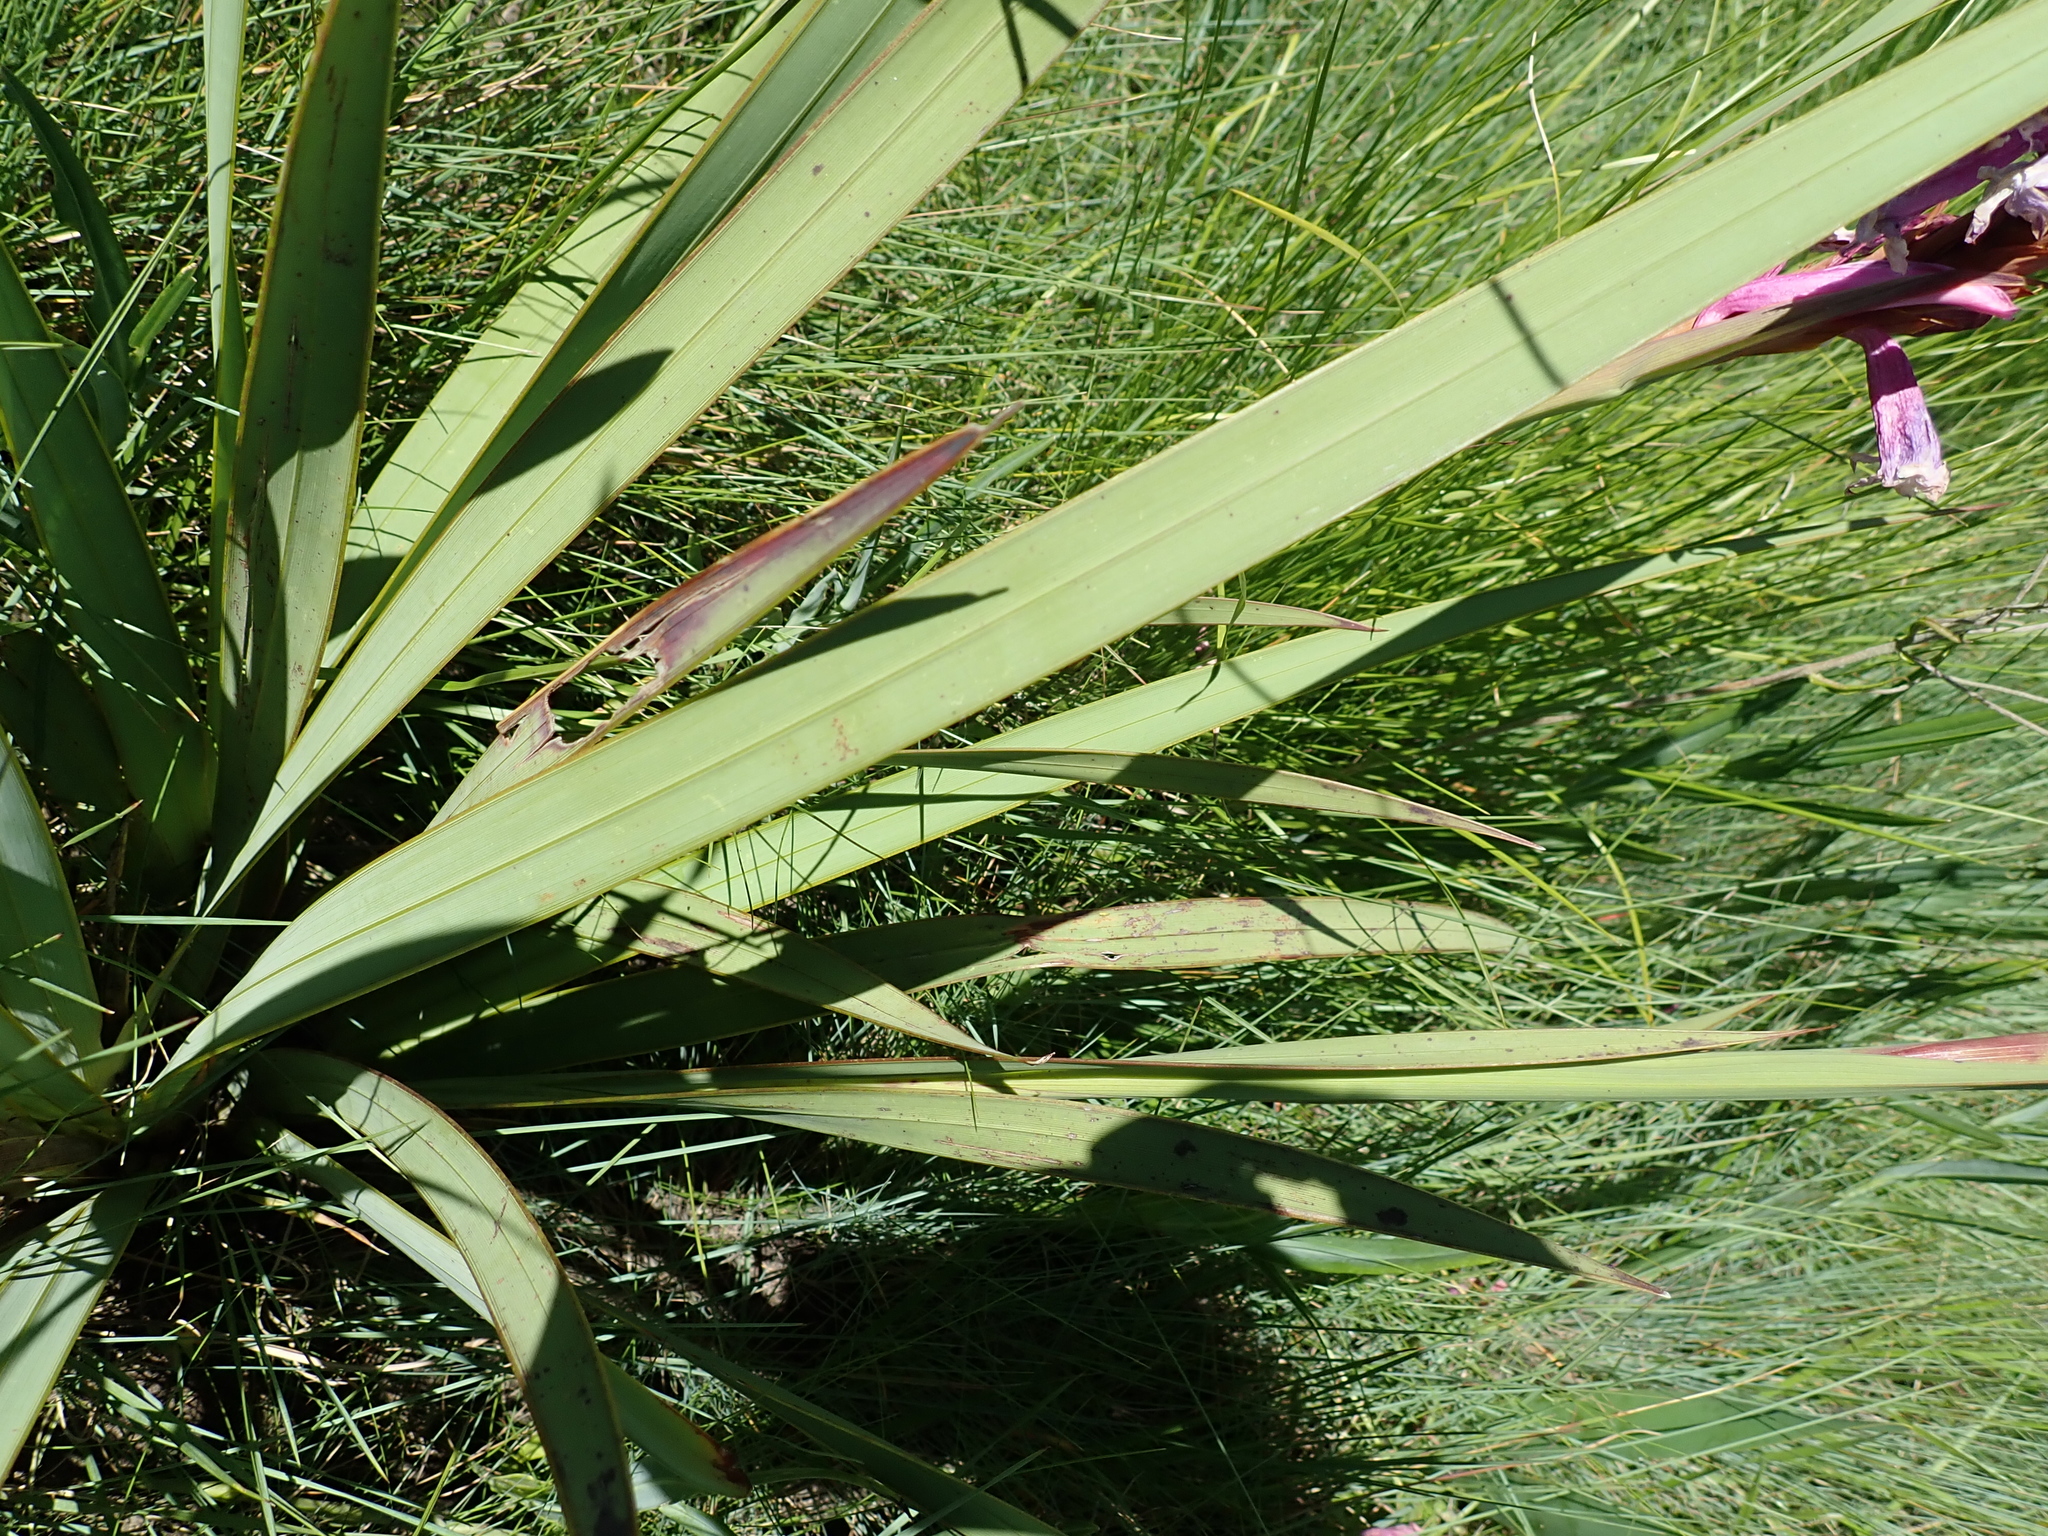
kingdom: Plantae
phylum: Tracheophyta
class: Liliopsida
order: Asparagales
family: Iridaceae
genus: Watsonia
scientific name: Watsonia lepida
